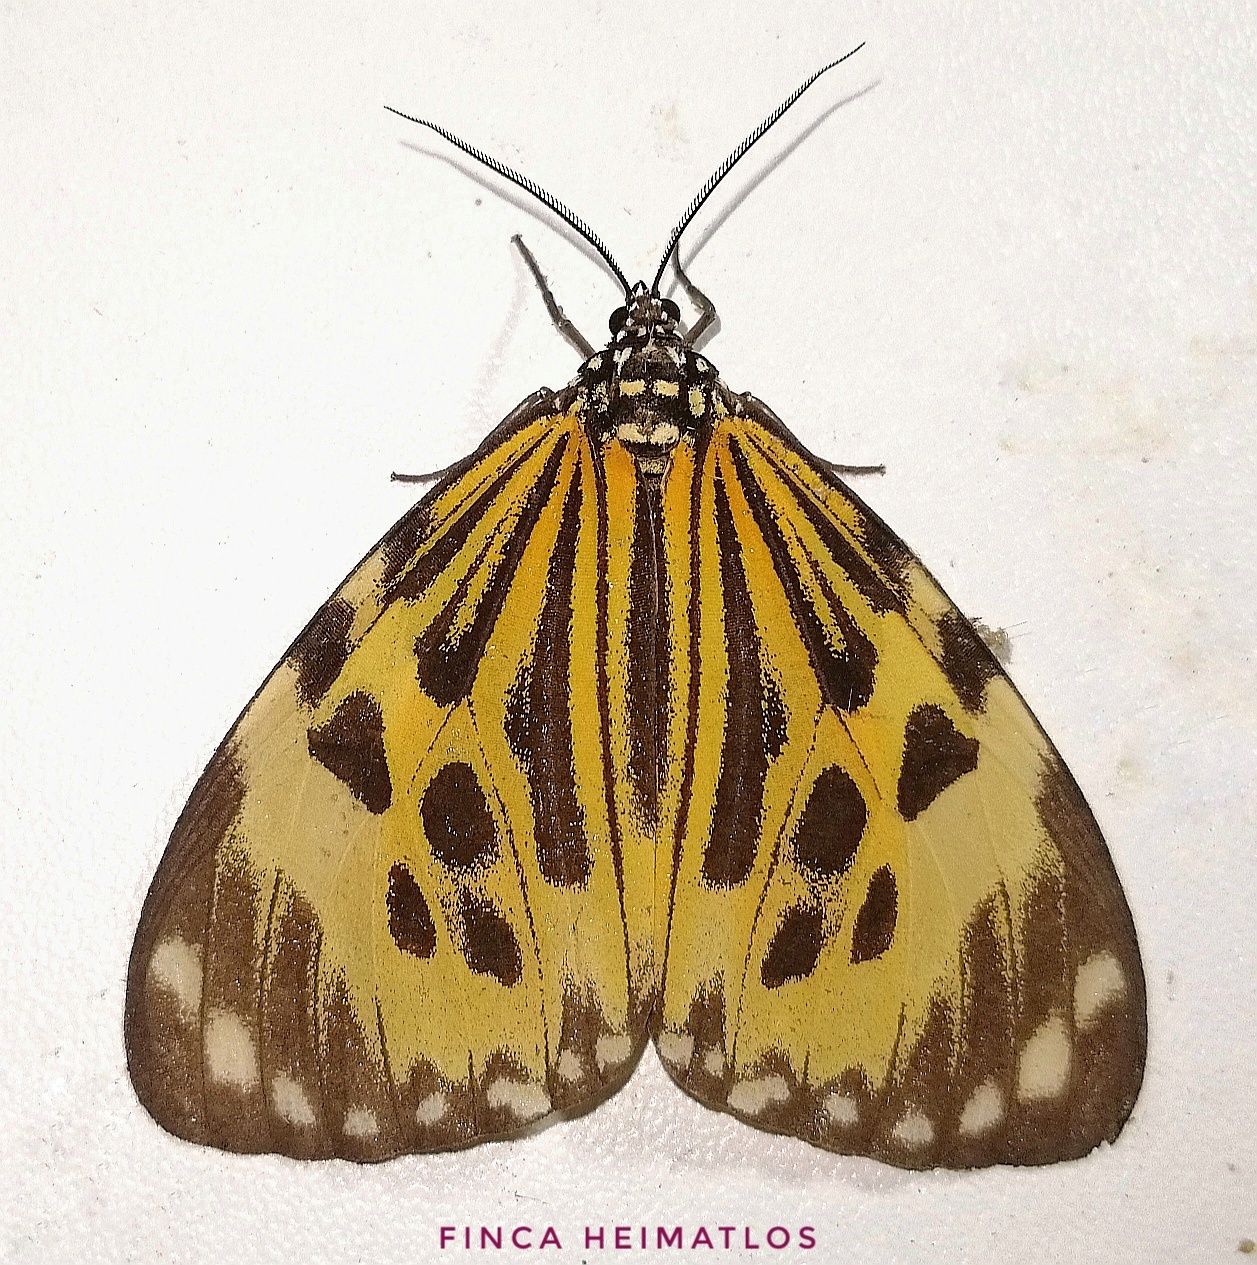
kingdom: Animalia
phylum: Arthropoda
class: Insecta
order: Lepidoptera
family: Erebidae
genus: Chetone
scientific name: Chetone histrio
